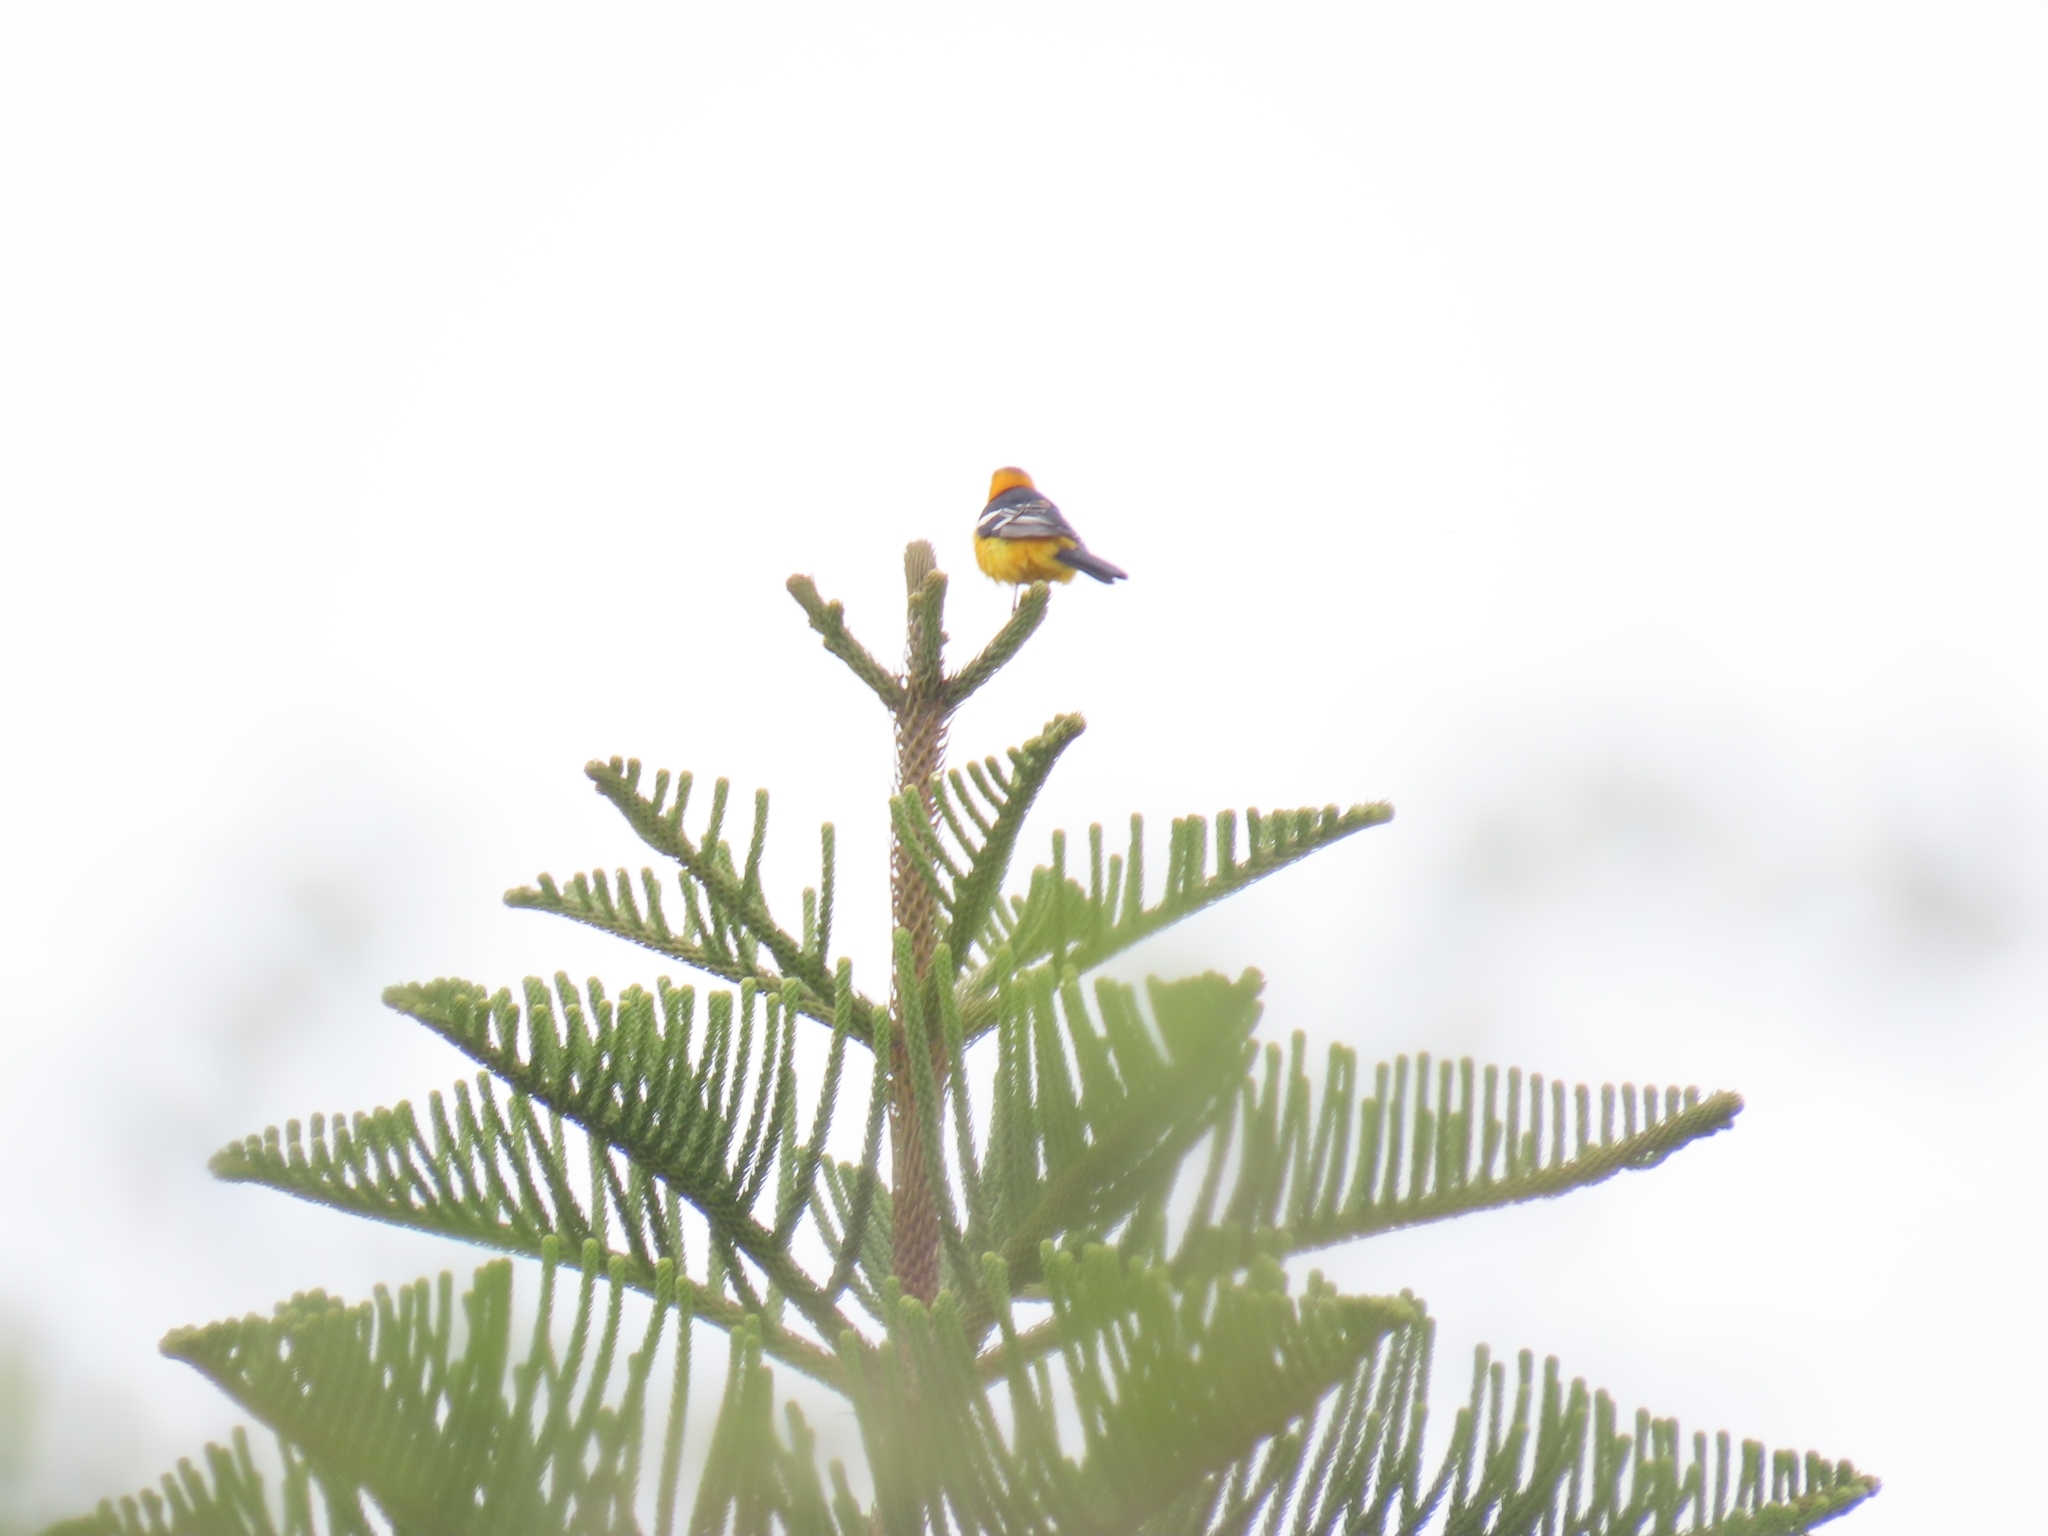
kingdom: Animalia
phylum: Chordata
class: Aves
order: Passeriformes
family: Icteridae
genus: Icterus
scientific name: Icterus cucullatus
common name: Hooded oriole
